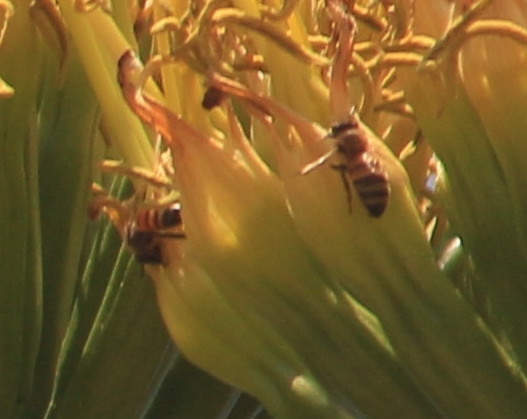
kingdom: Animalia
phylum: Arthropoda
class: Insecta
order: Hymenoptera
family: Apidae
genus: Apis
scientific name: Apis mellifera
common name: Honey bee
